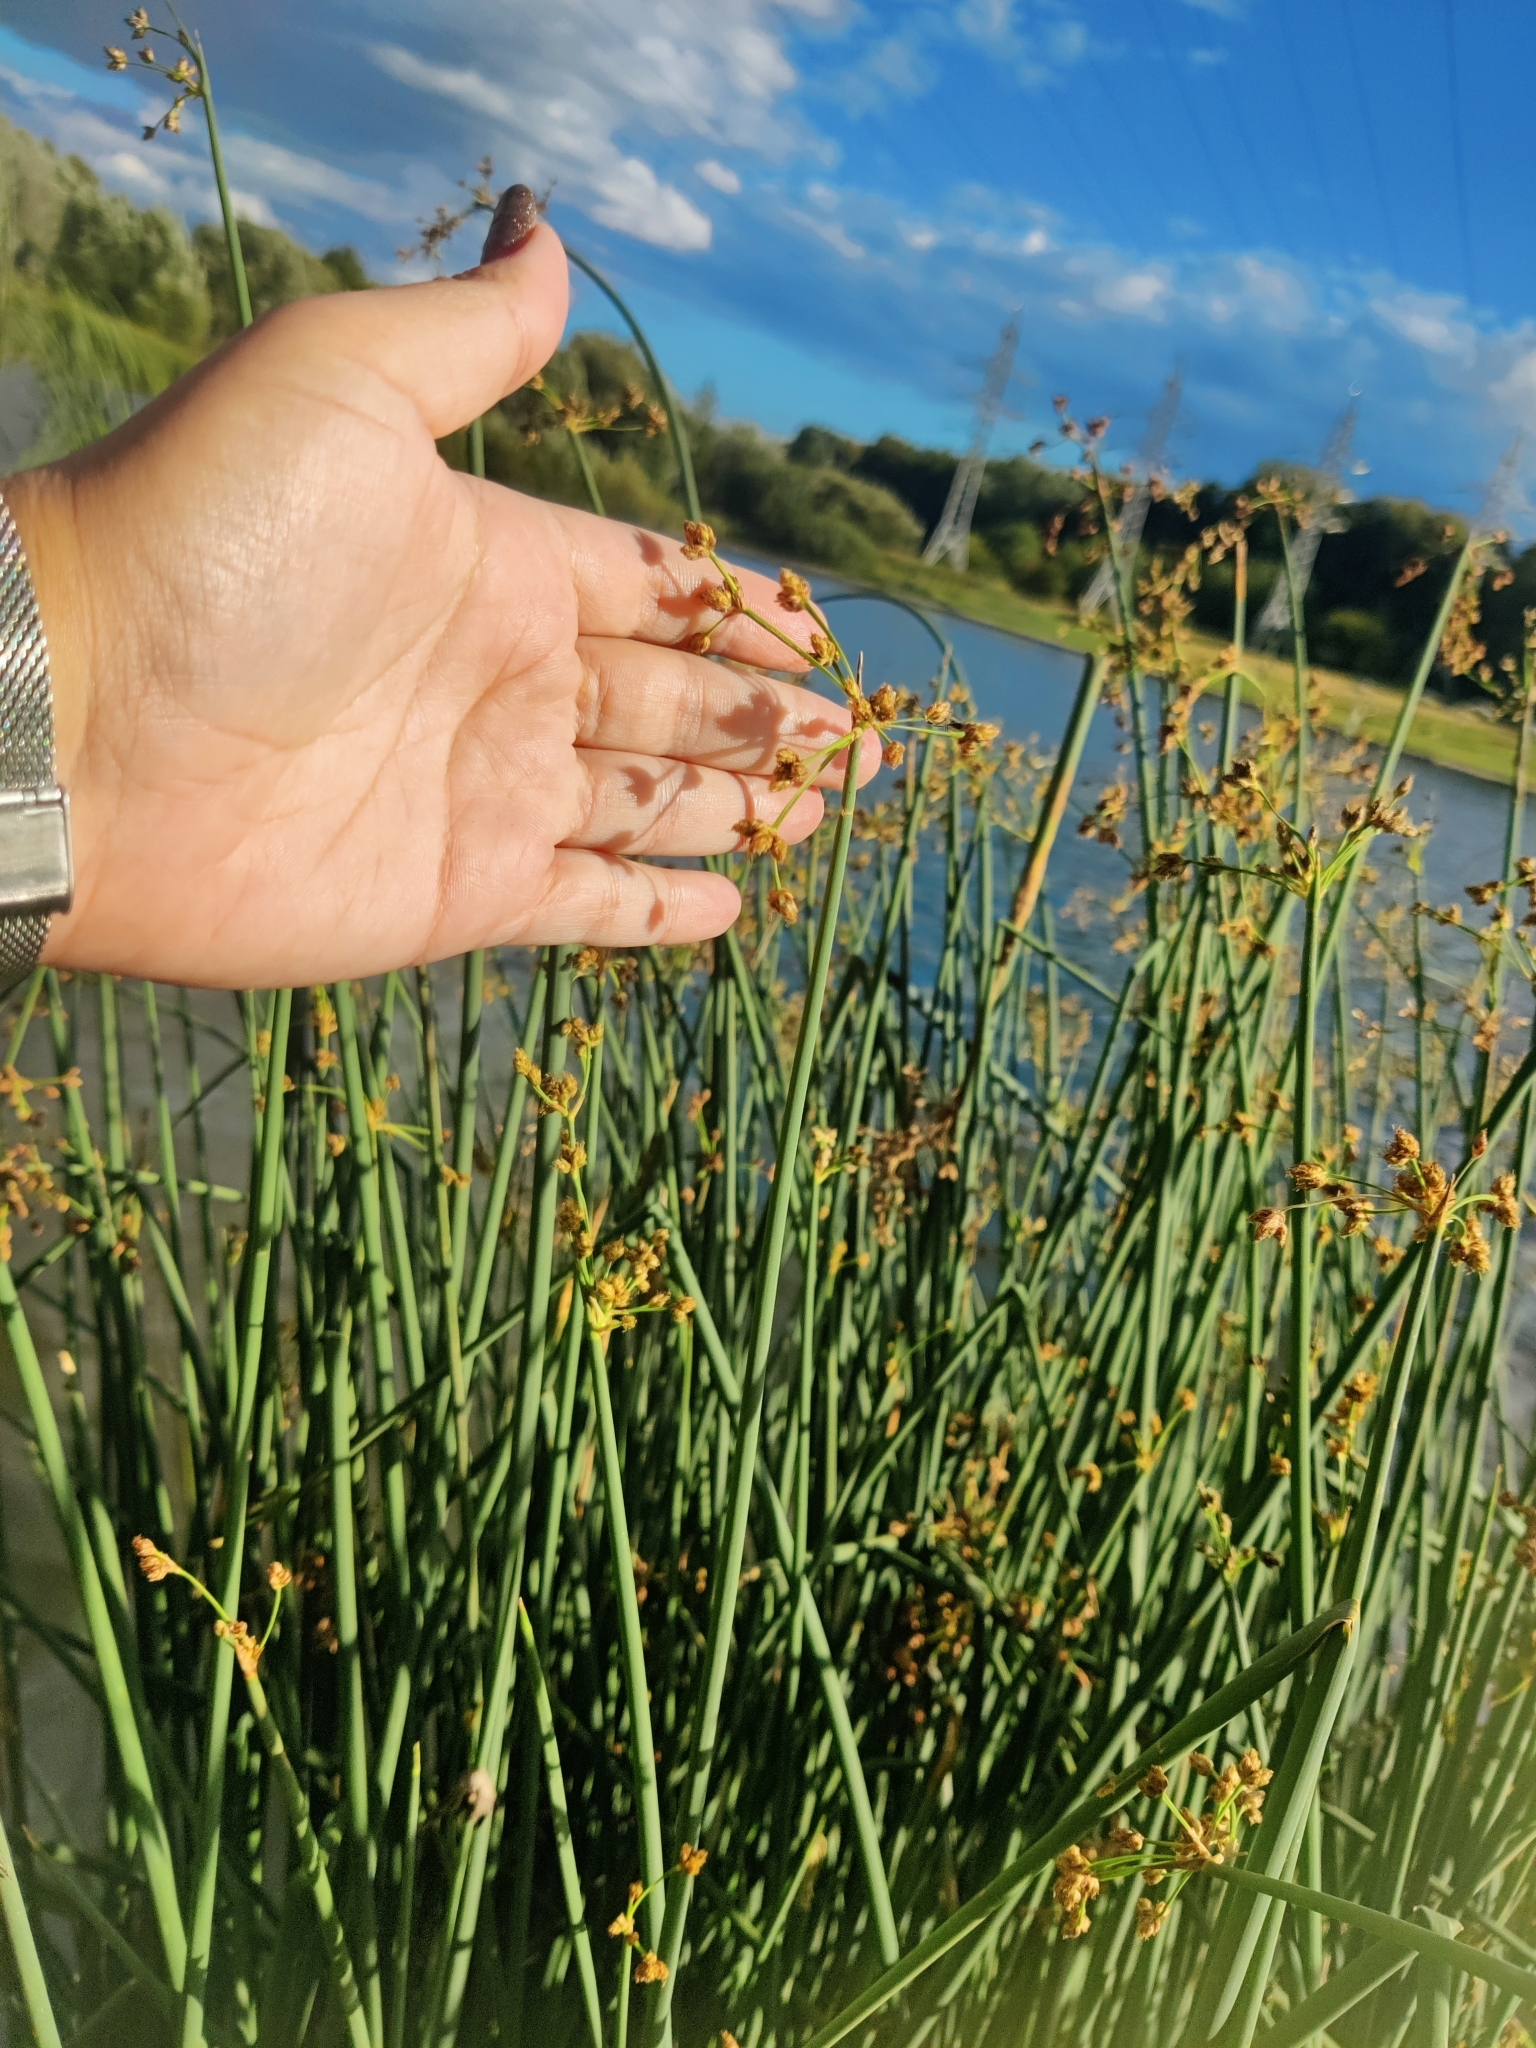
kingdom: Plantae
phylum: Tracheophyta
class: Liliopsida
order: Poales
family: Cyperaceae
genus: Schoenoplectus
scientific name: Schoenoplectus lacustris
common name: Common club-rush
